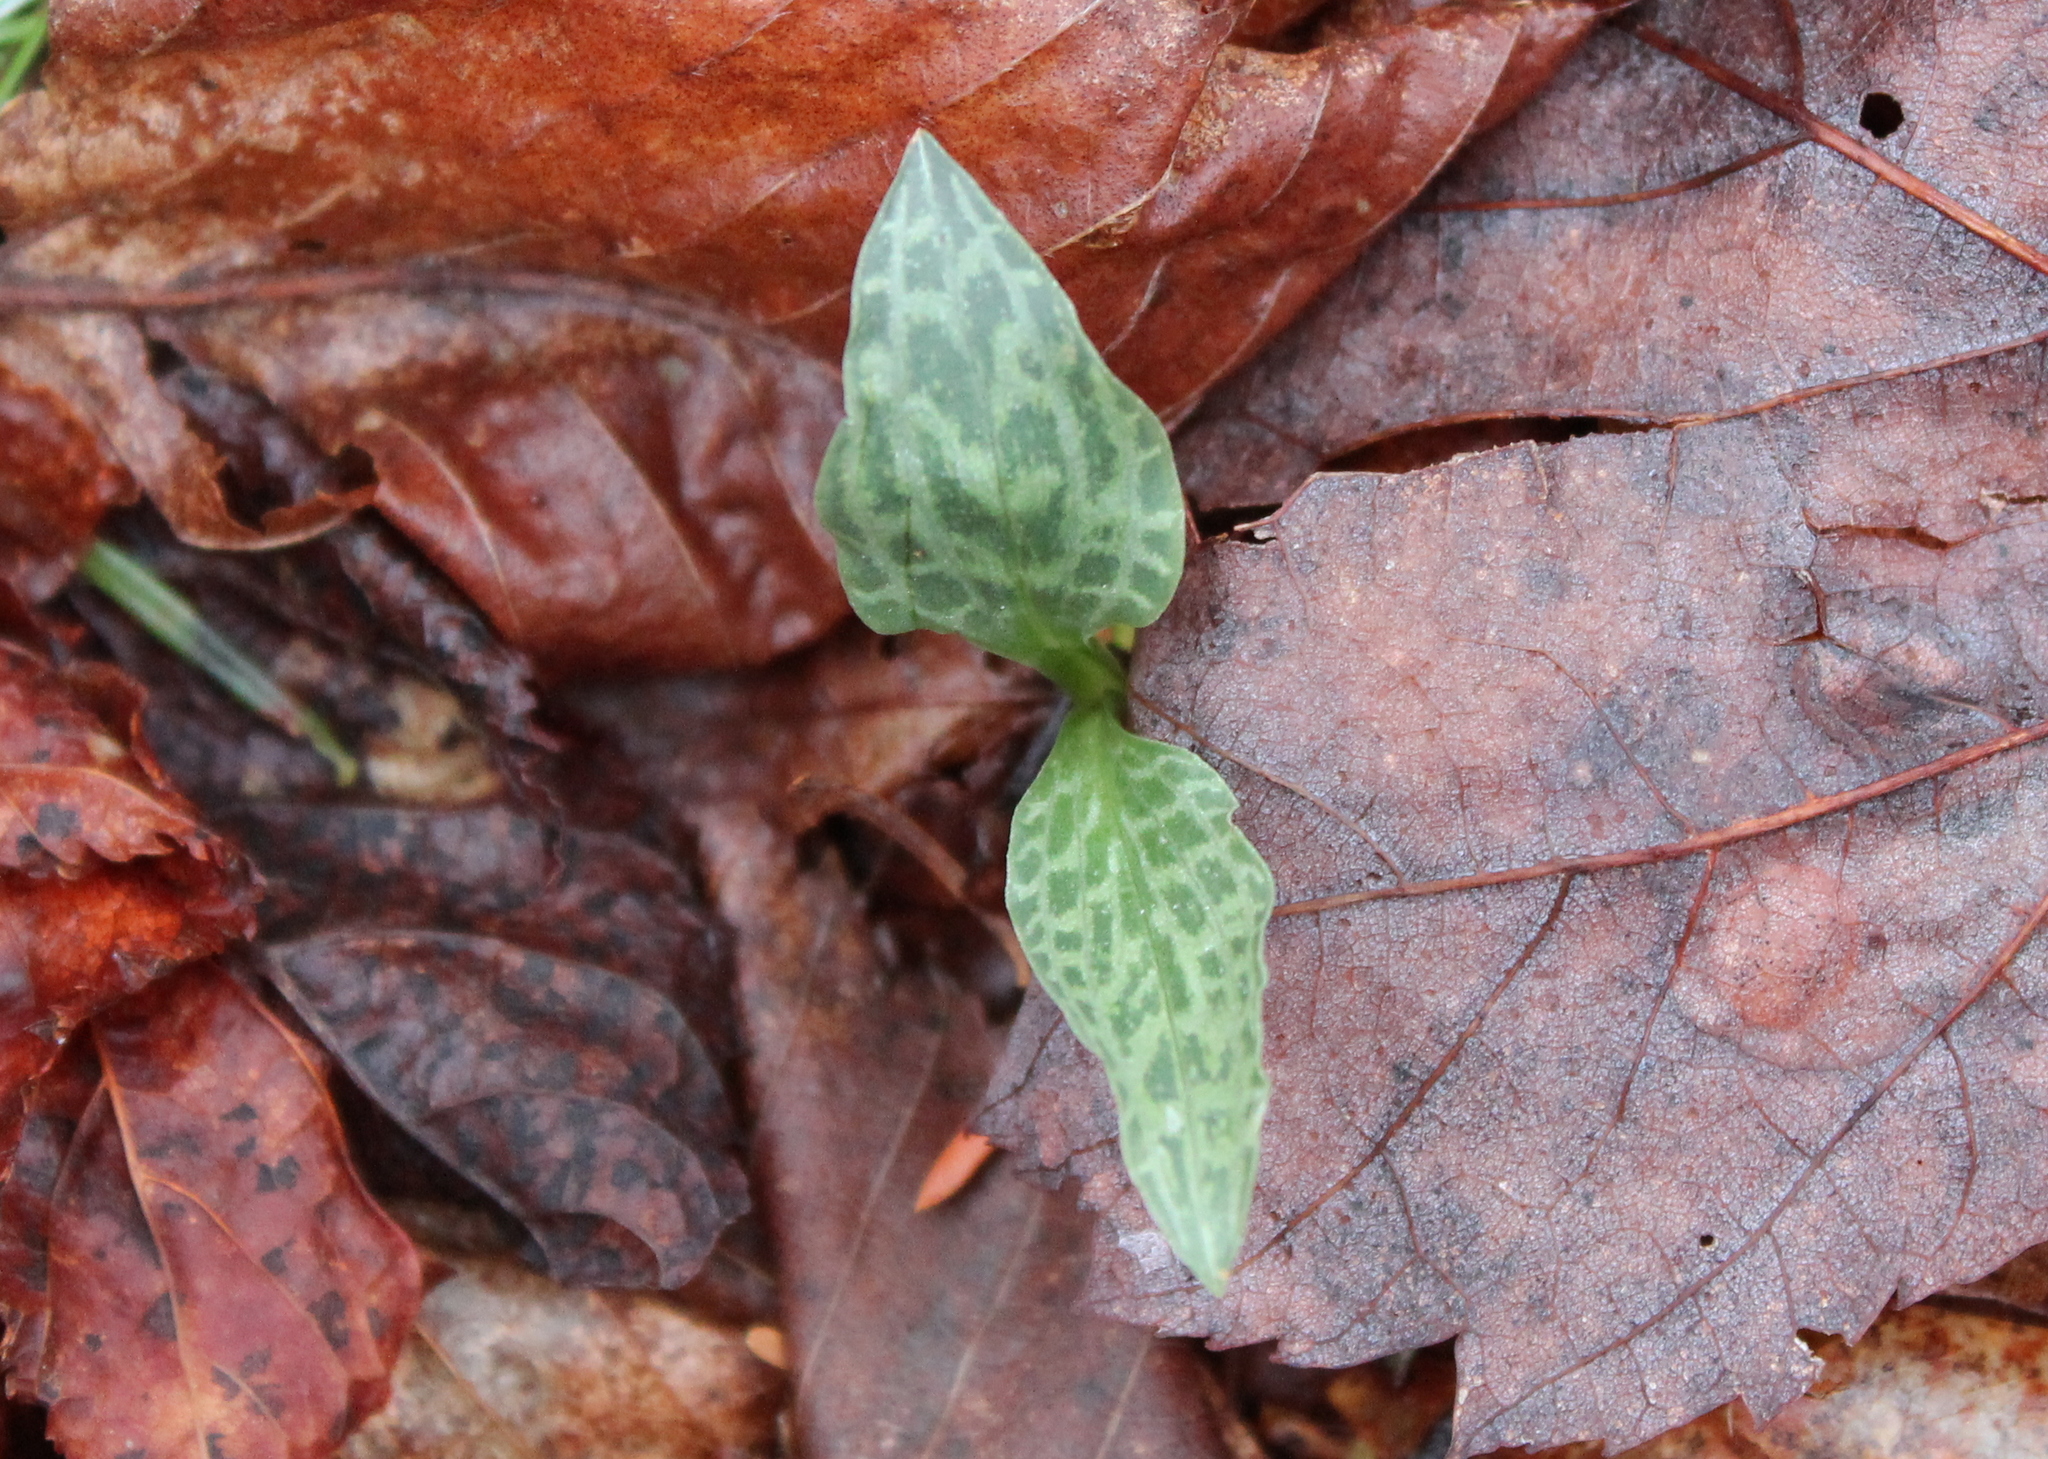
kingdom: Plantae
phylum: Tracheophyta
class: Liliopsida
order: Asparagales
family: Orchidaceae
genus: Goodyera
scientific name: Goodyera tesselata
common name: Checkered rattlesnake-plantain
